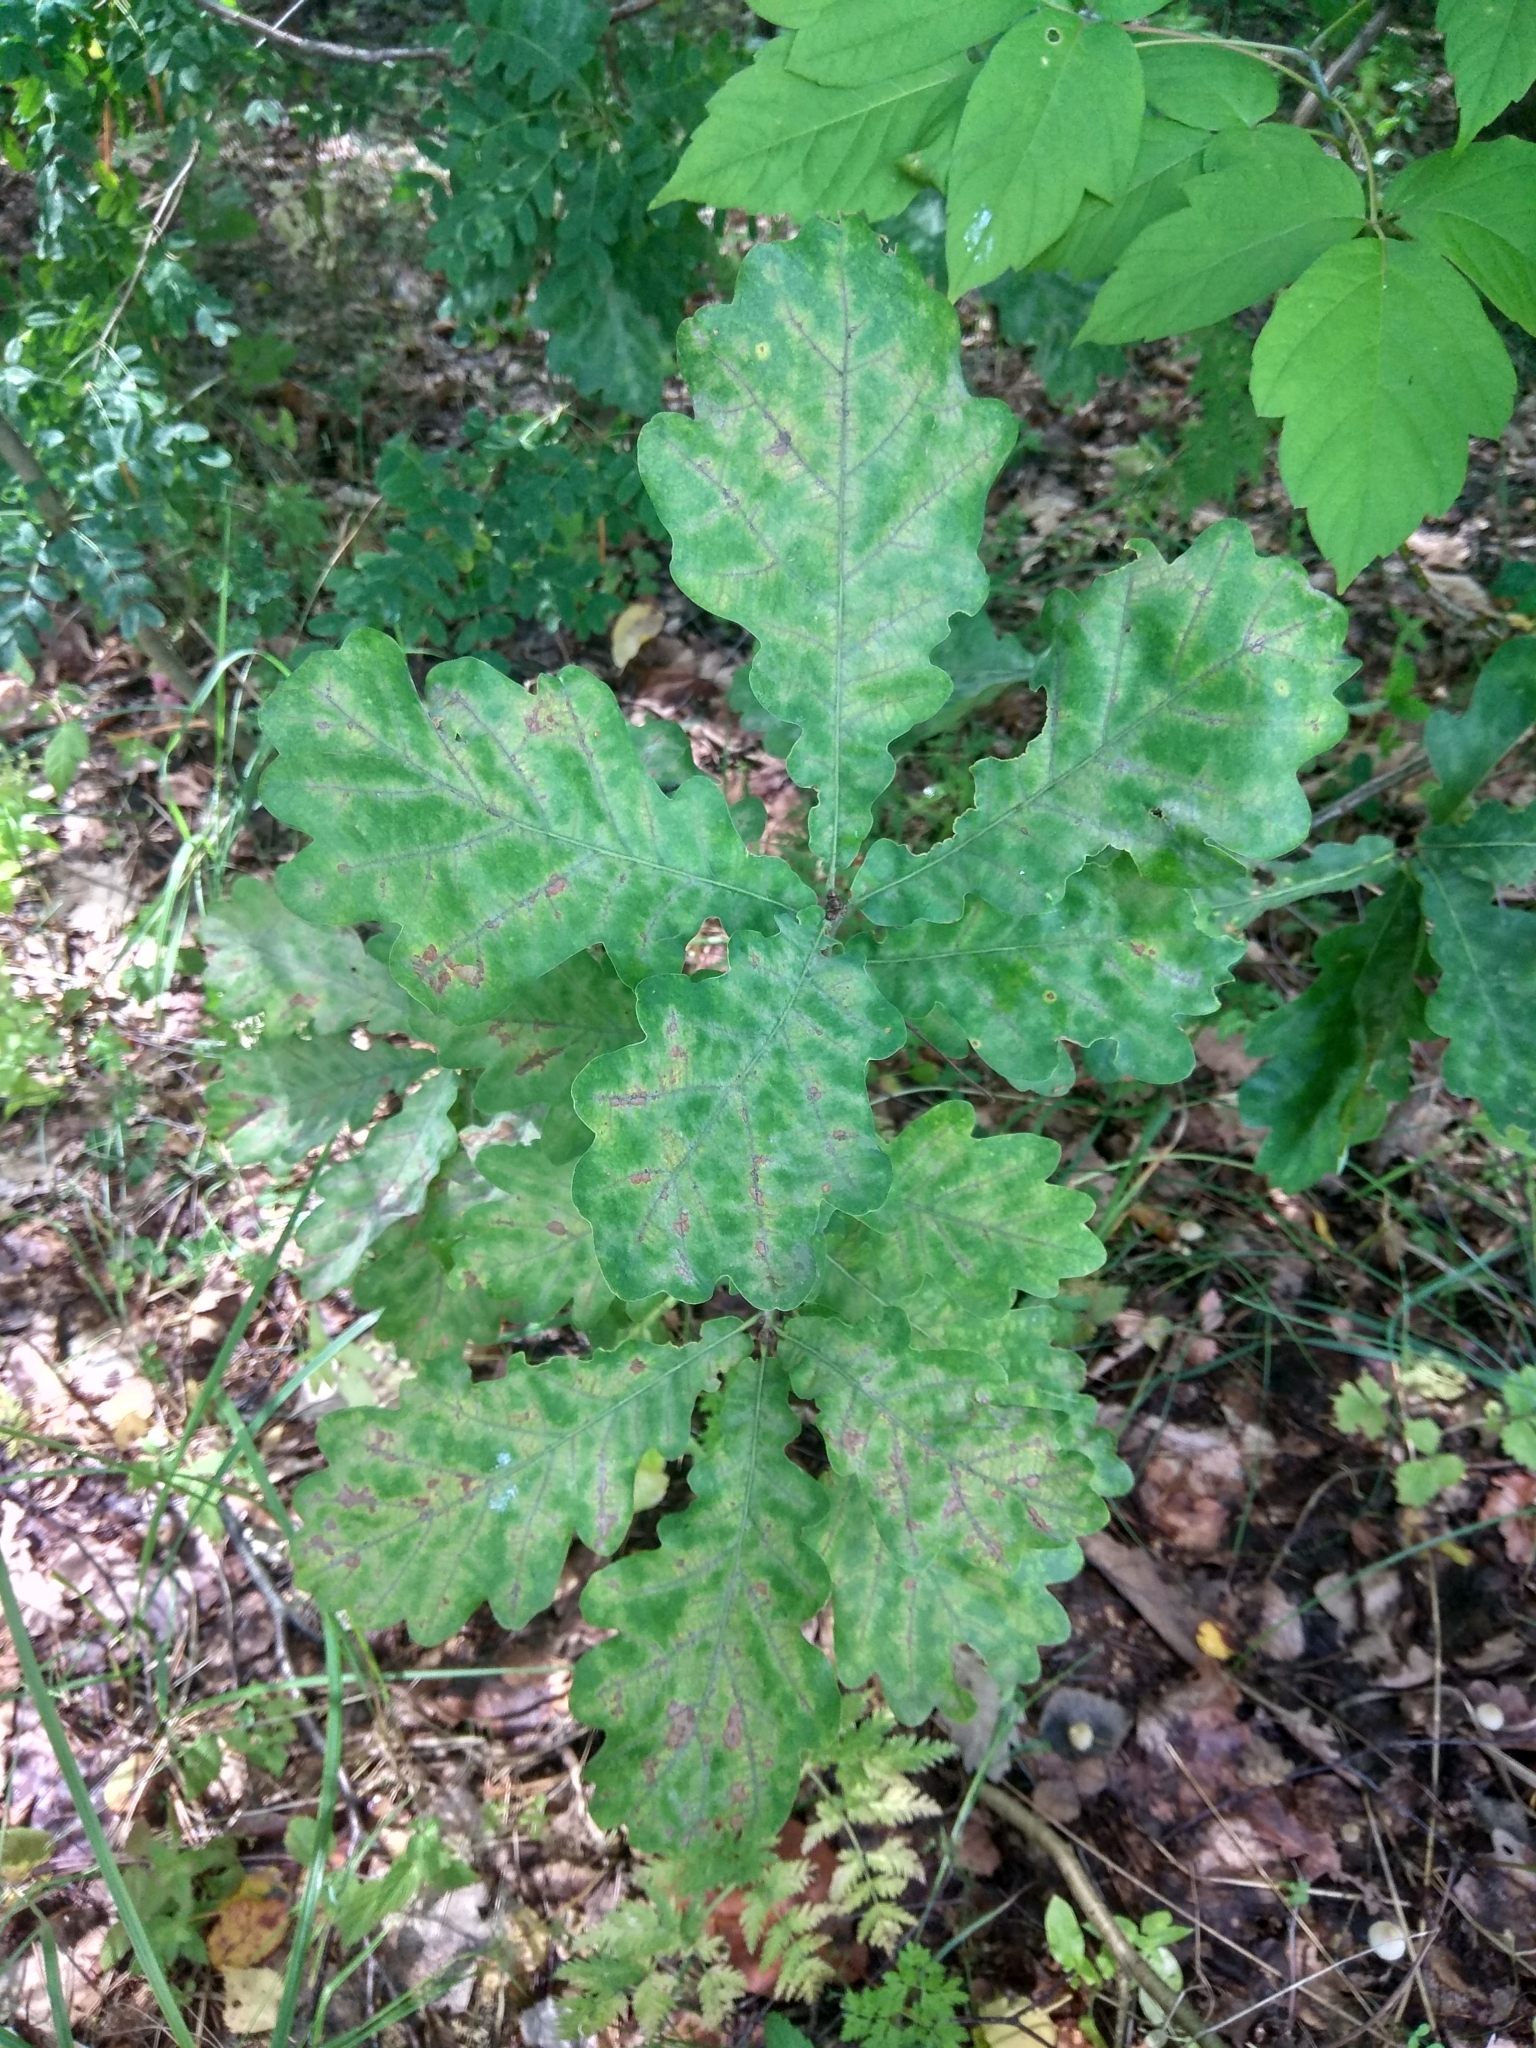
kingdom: Plantae
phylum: Tracheophyta
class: Magnoliopsida
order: Fagales
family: Fagaceae
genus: Quercus
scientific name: Quercus robur
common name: Pedunculate oak
